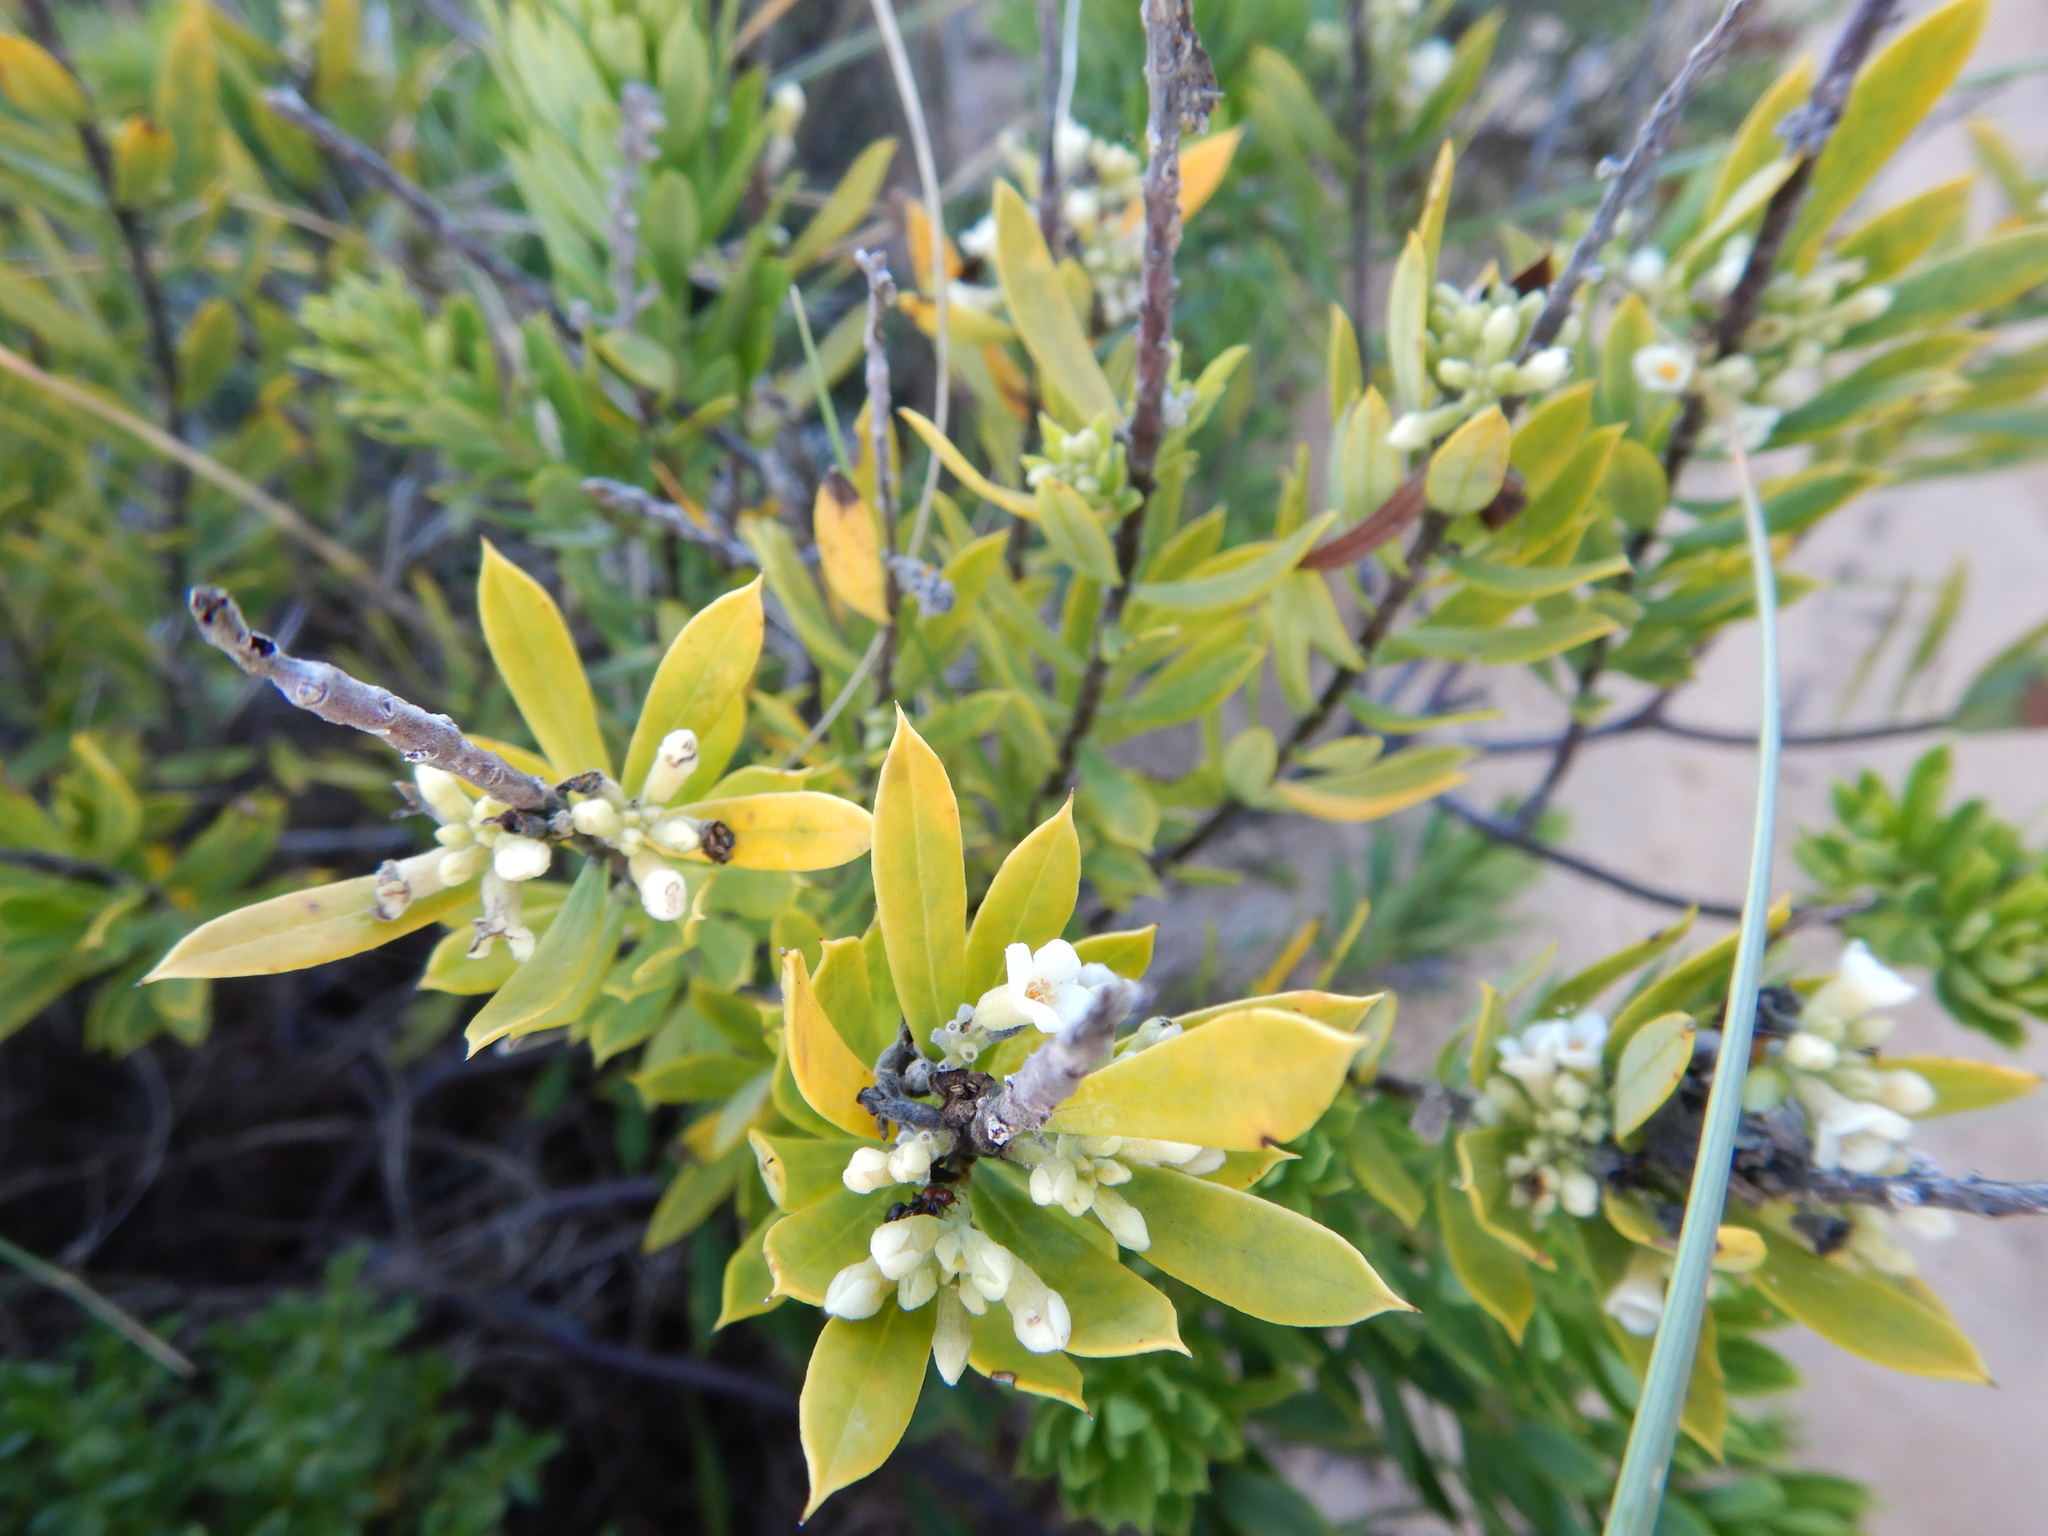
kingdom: Plantae
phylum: Tracheophyta
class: Magnoliopsida
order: Malvales
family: Thymelaeaceae
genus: Daphne
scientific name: Daphne gnidium
